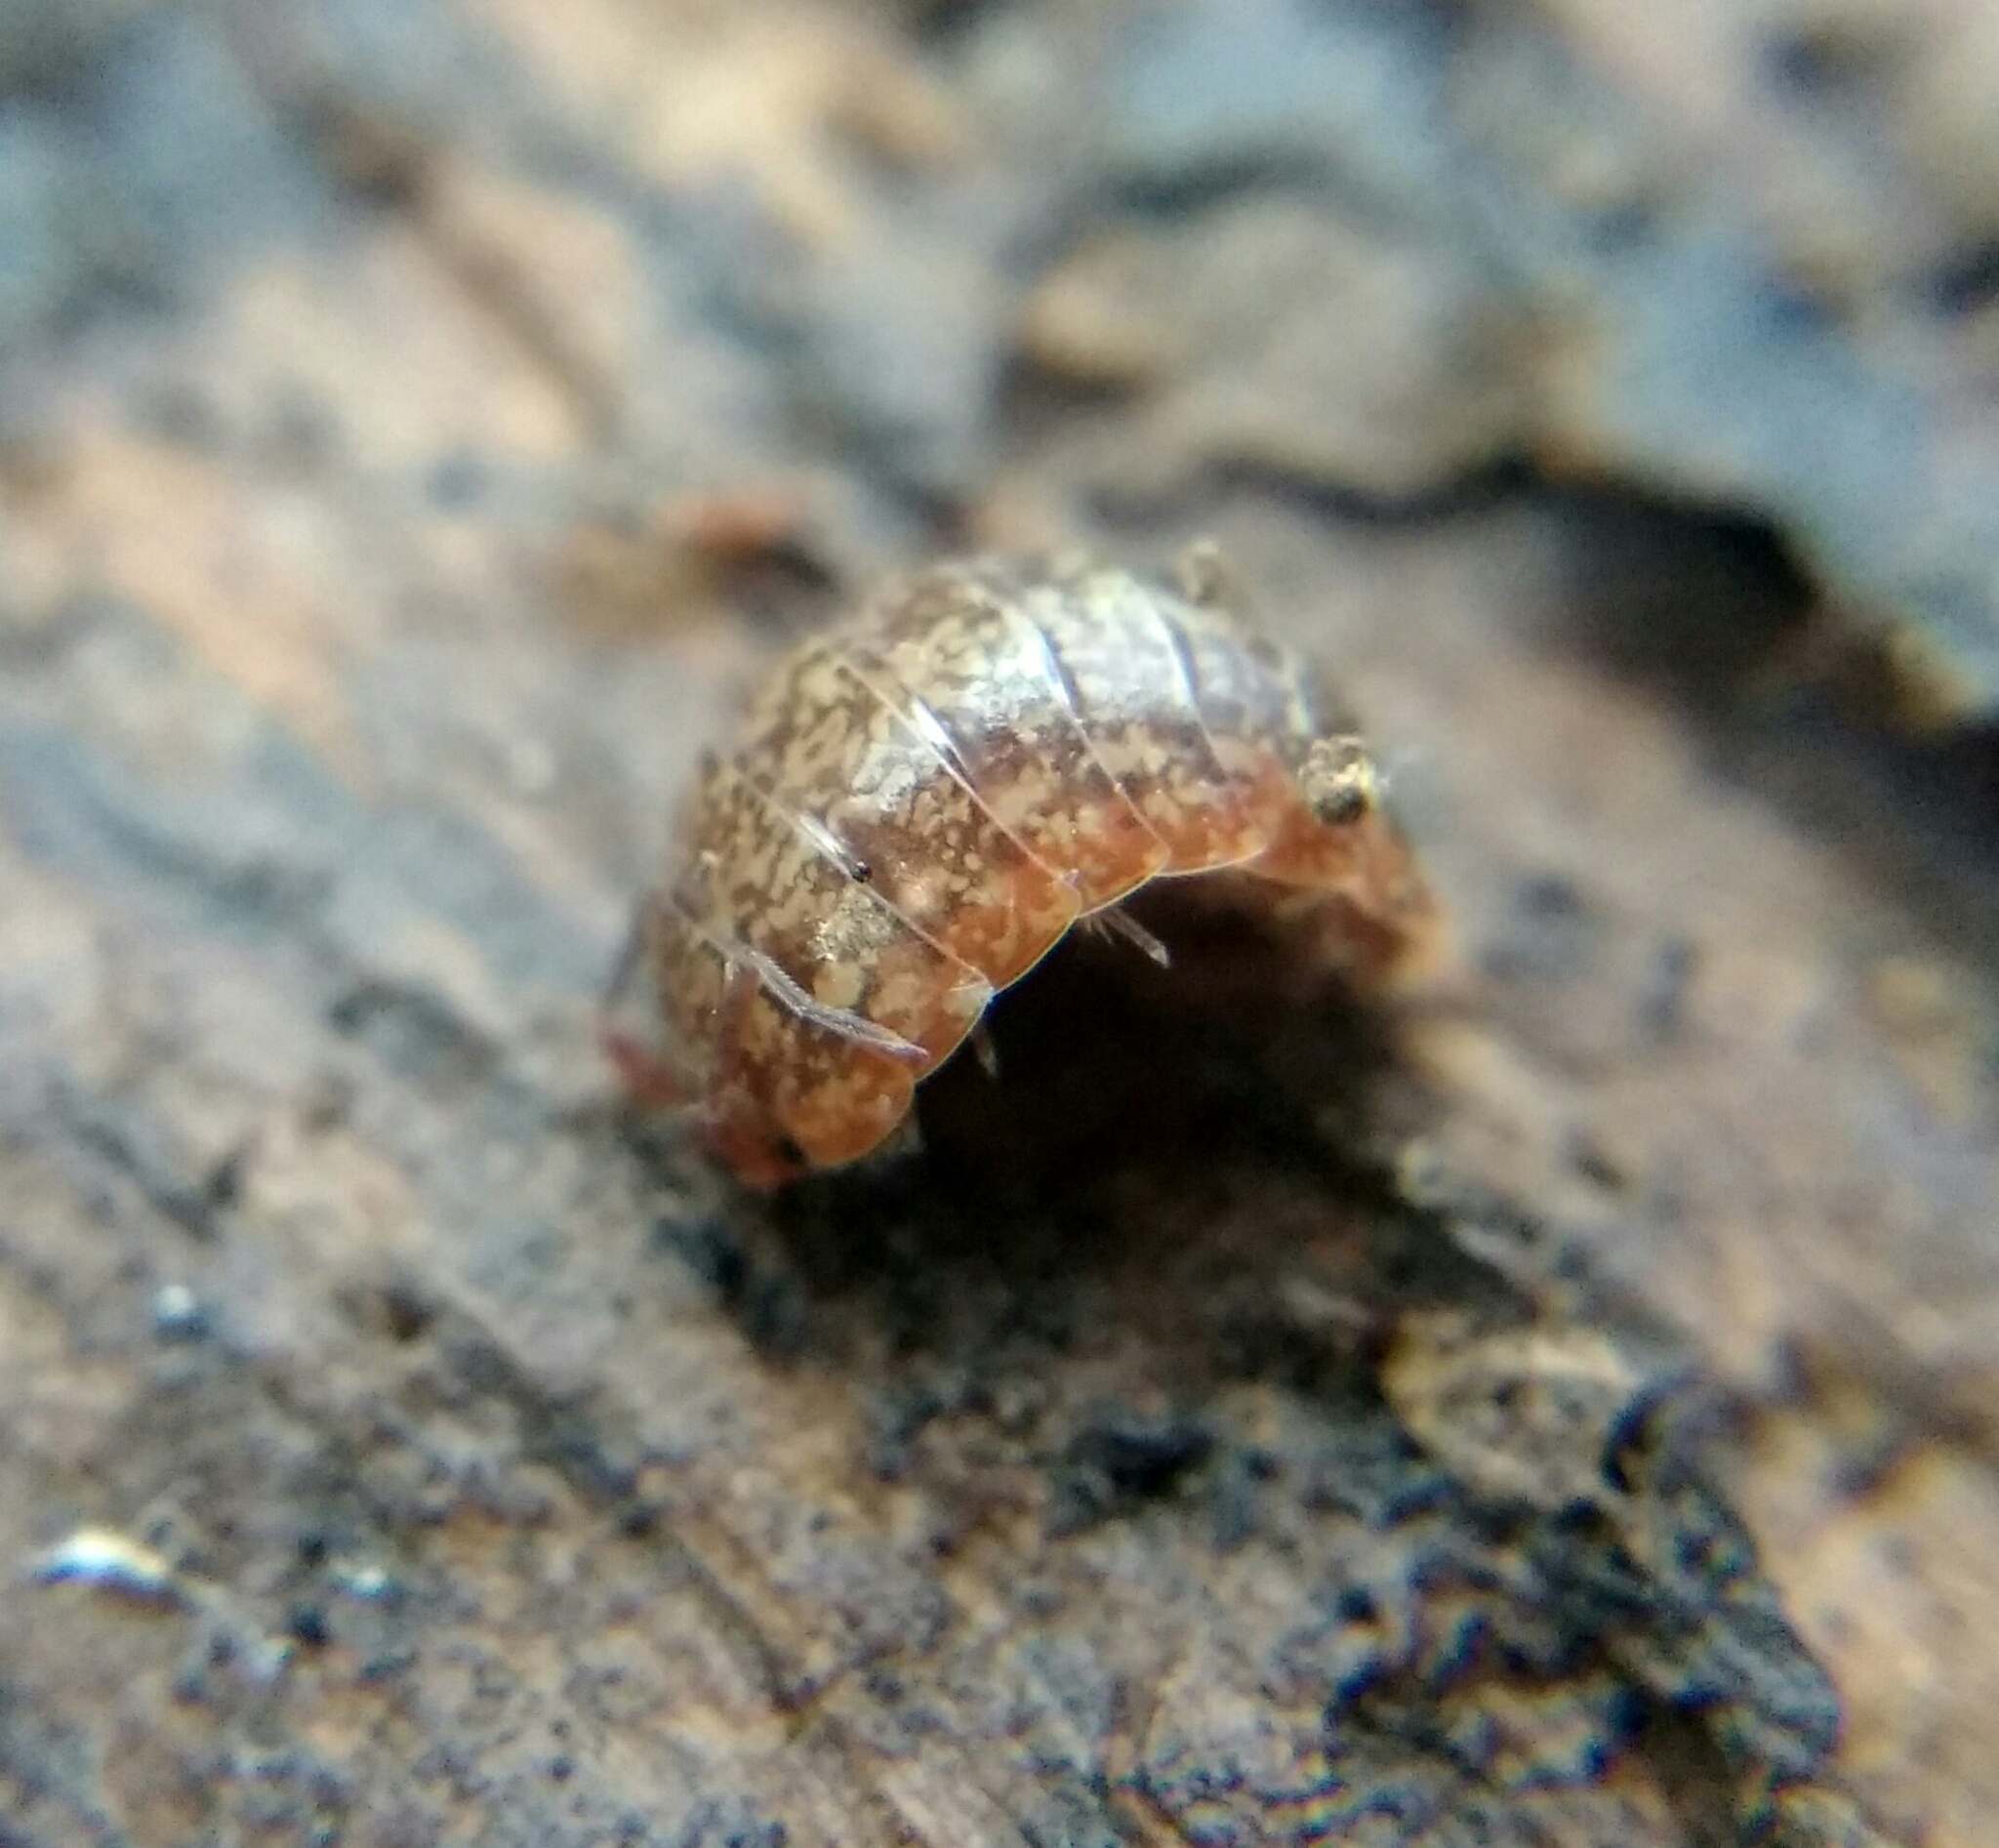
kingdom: Animalia
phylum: Arthropoda
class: Malacostraca
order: Isopoda
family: Agnaridae
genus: Protracheoniscus
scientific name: Protracheoniscus politus
